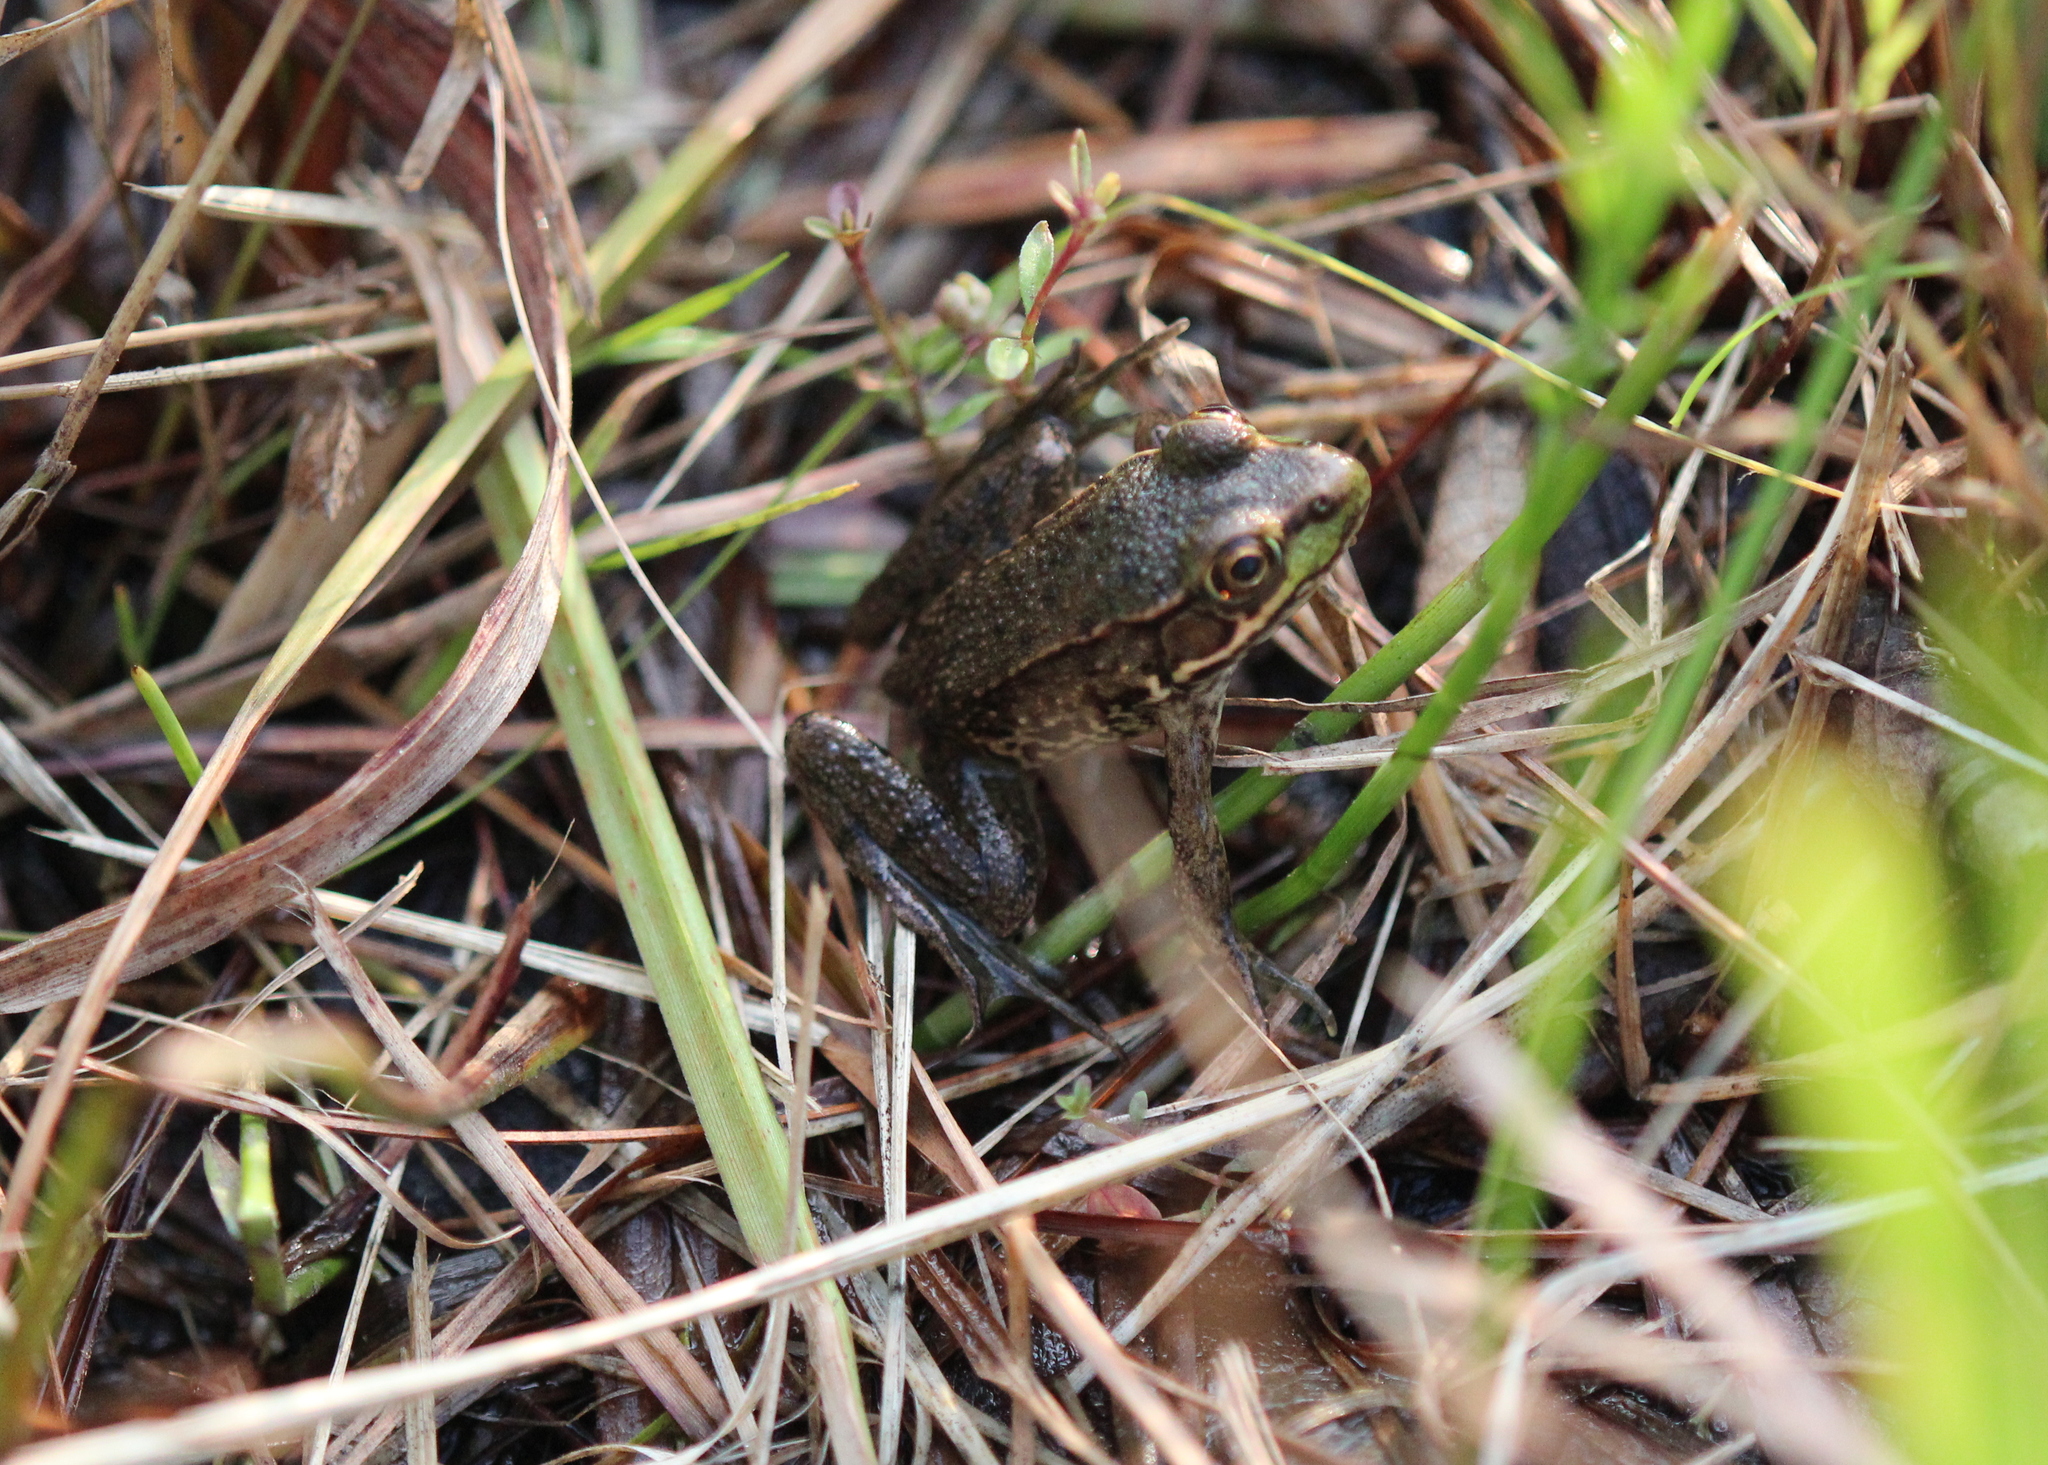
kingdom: Animalia
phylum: Chordata
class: Amphibia
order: Anura
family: Ranidae
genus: Lithobates
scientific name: Lithobates clamitans
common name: Green frog
